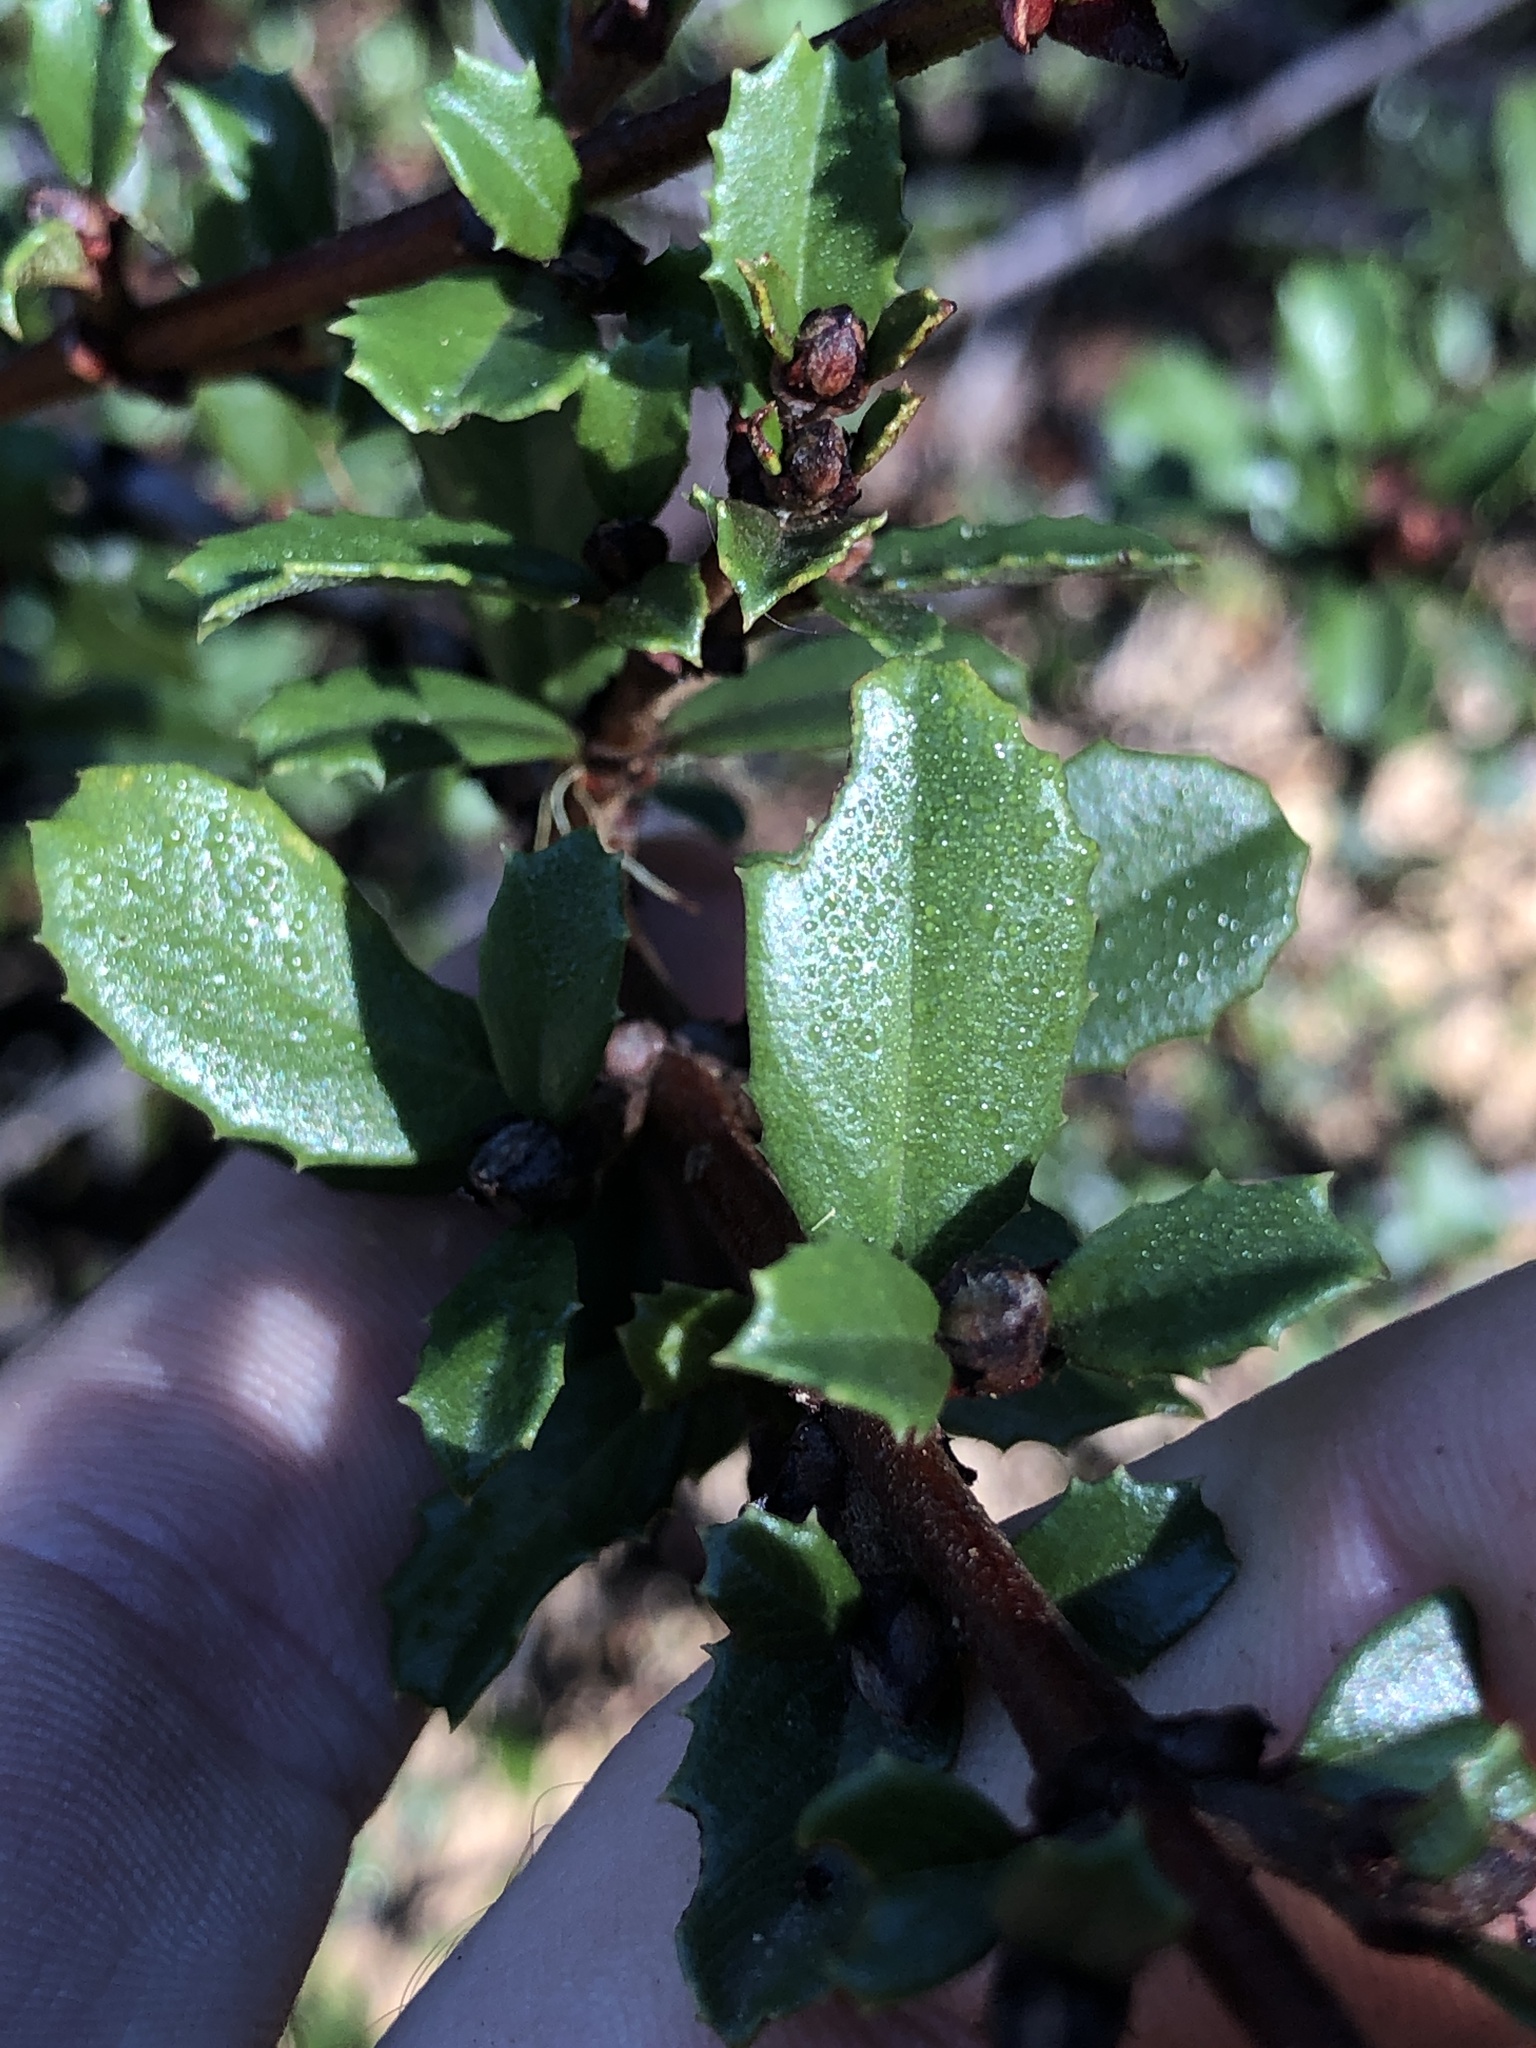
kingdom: Plantae
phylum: Tracheophyta
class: Magnoliopsida
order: Rosales
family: Rhamnaceae
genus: Ceanothus
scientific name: Ceanothus gloriosus
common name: Point reyes ceanothus
